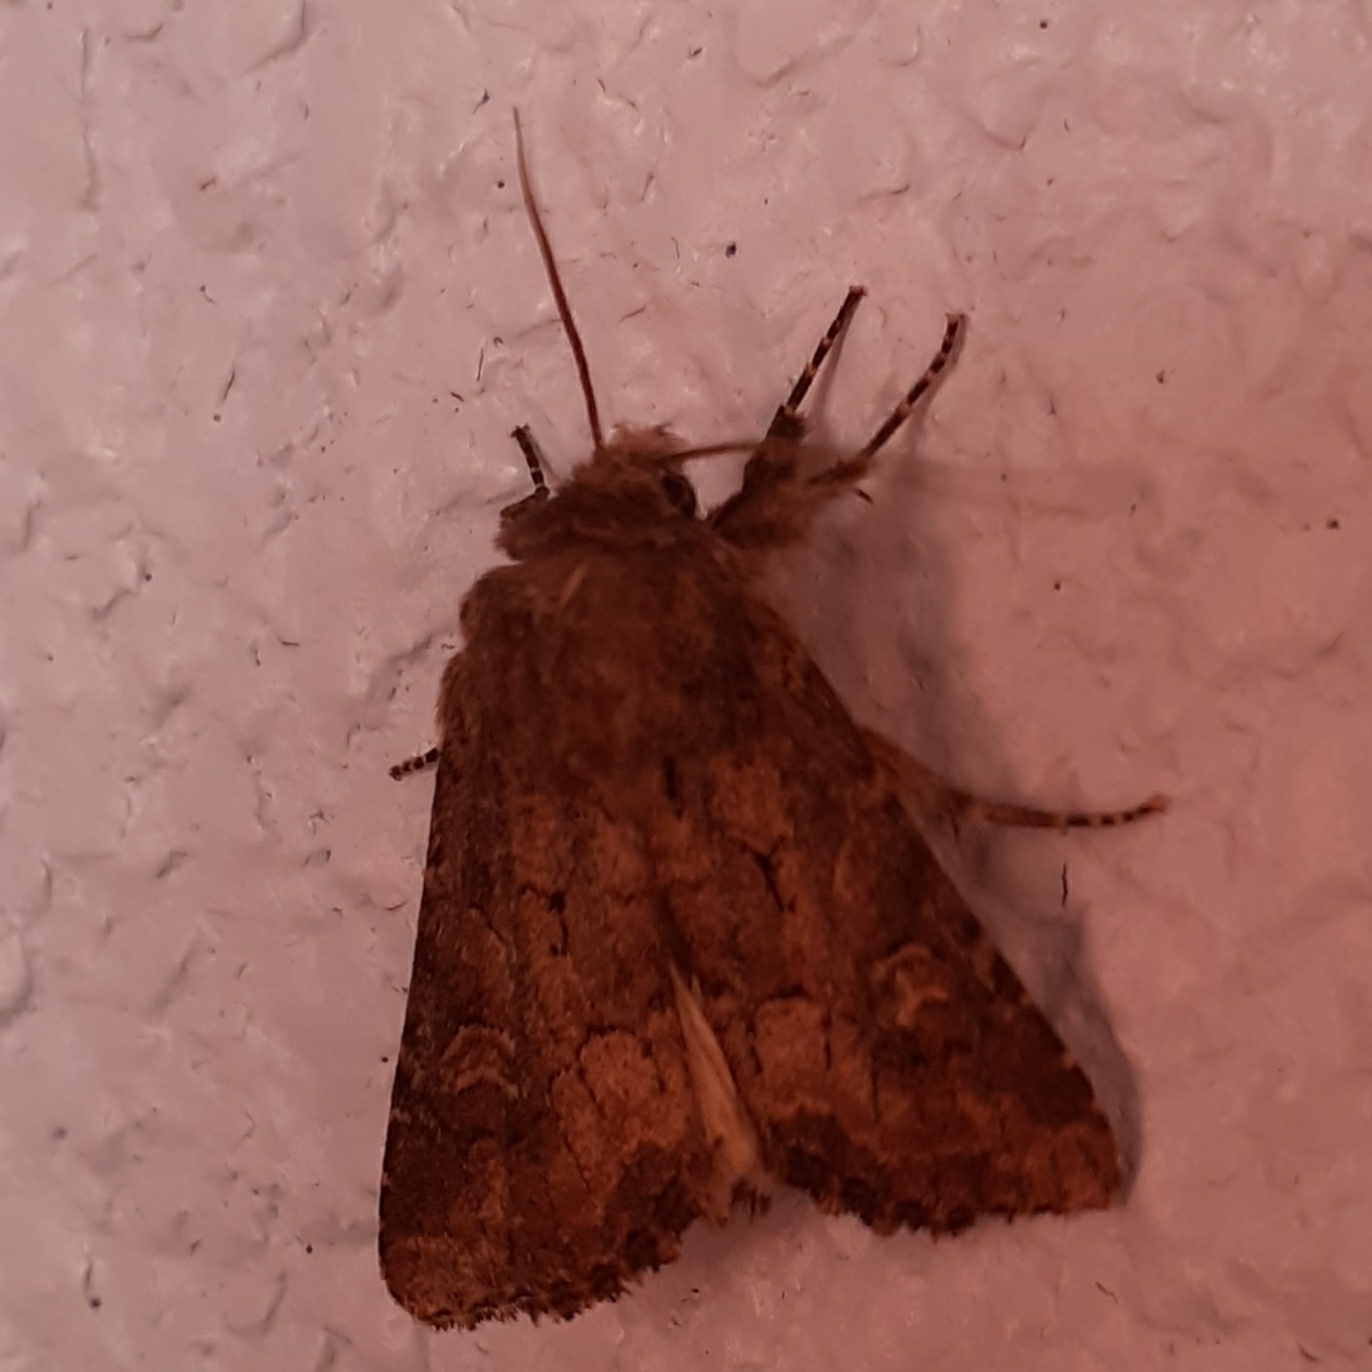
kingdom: Animalia
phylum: Arthropoda
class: Insecta
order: Lepidoptera
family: Noctuidae
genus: Luperina
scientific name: Luperina testacea
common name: Flounced rustic
